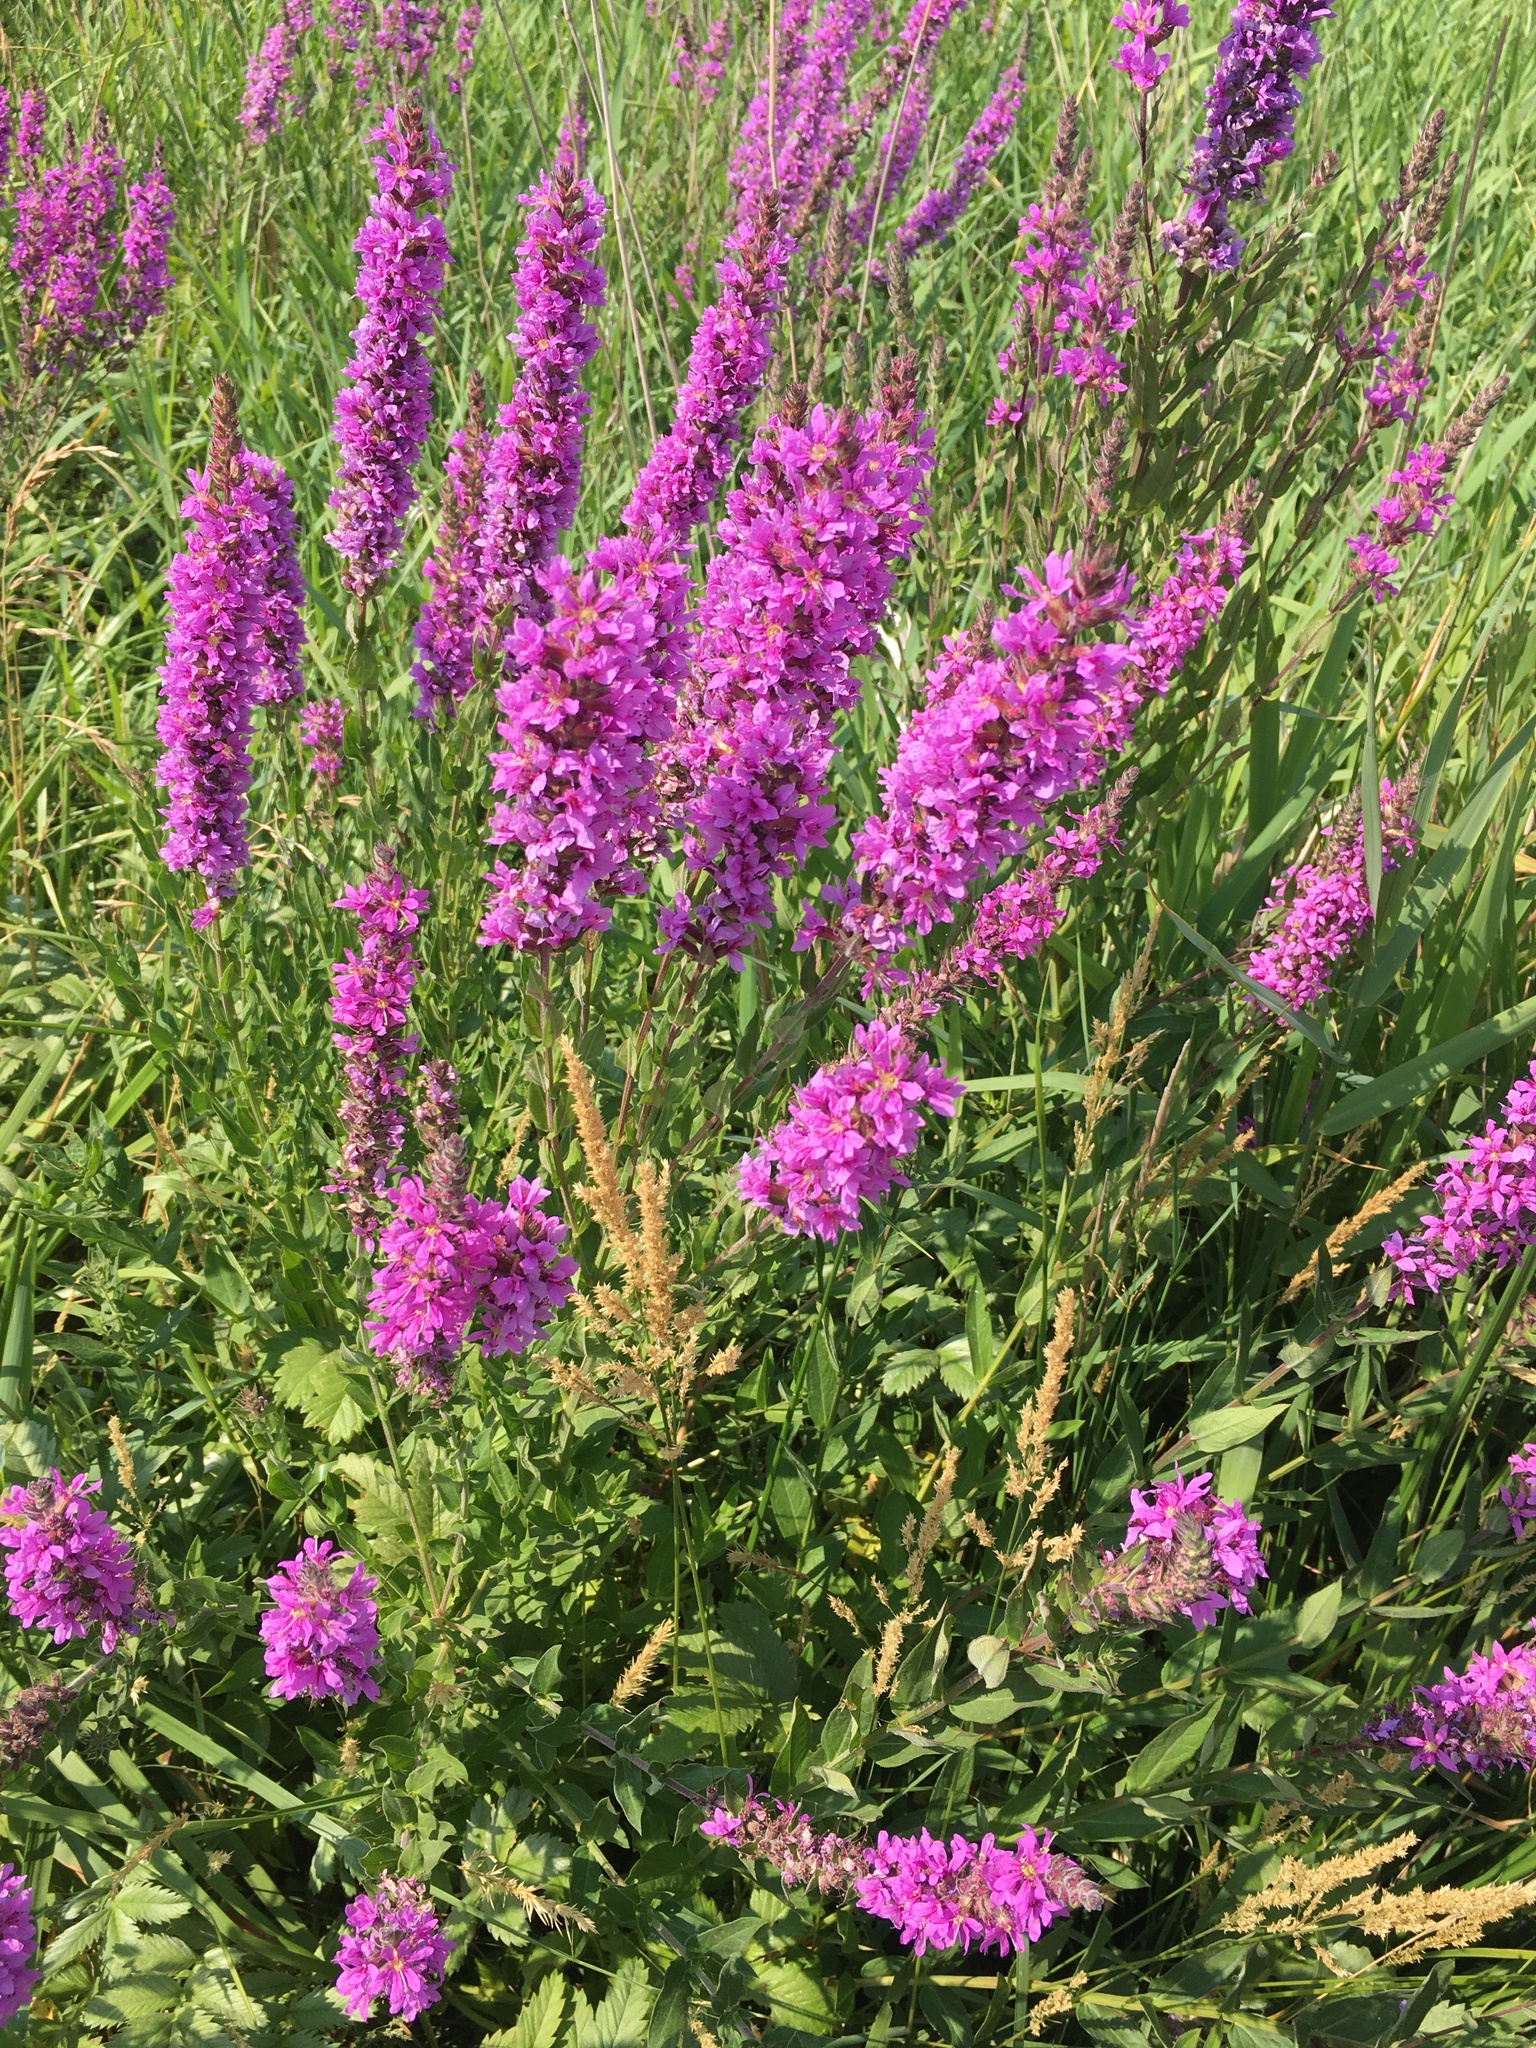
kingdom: Plantae
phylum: Tracheophyta
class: Magnoliopsida
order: Myrtales
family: Lythraceae
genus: Lythrum
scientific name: Lythrum salicaria
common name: Purple loosestrife
